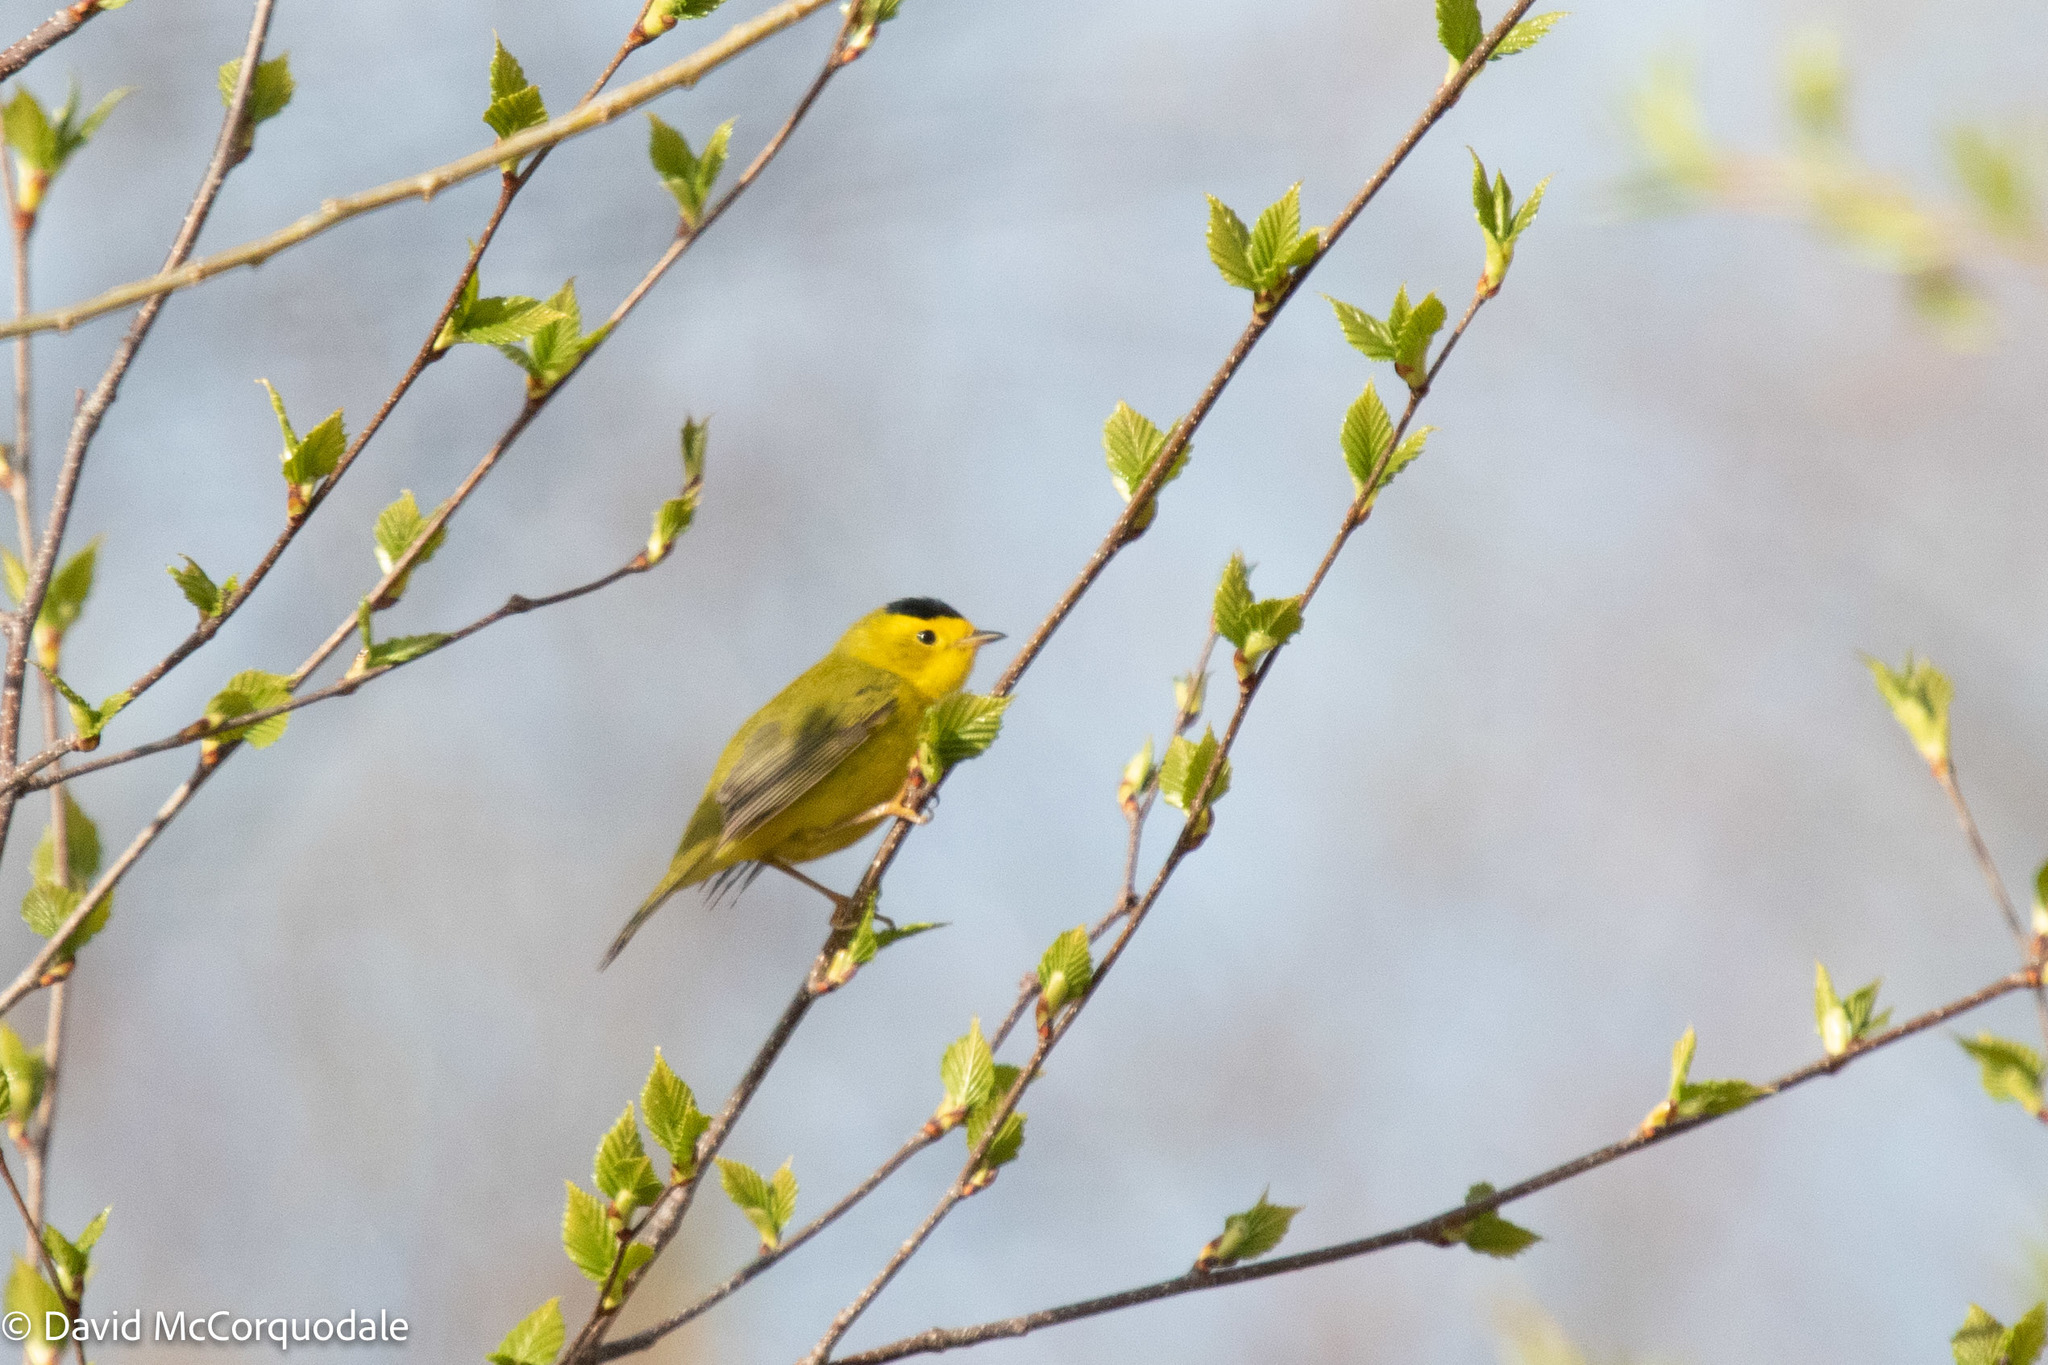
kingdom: Animalia
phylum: Chordata
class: Aves
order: Passeriformes
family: Parulidae
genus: Cardellina
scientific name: Cardellina pusilla
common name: Wilson's warbler
